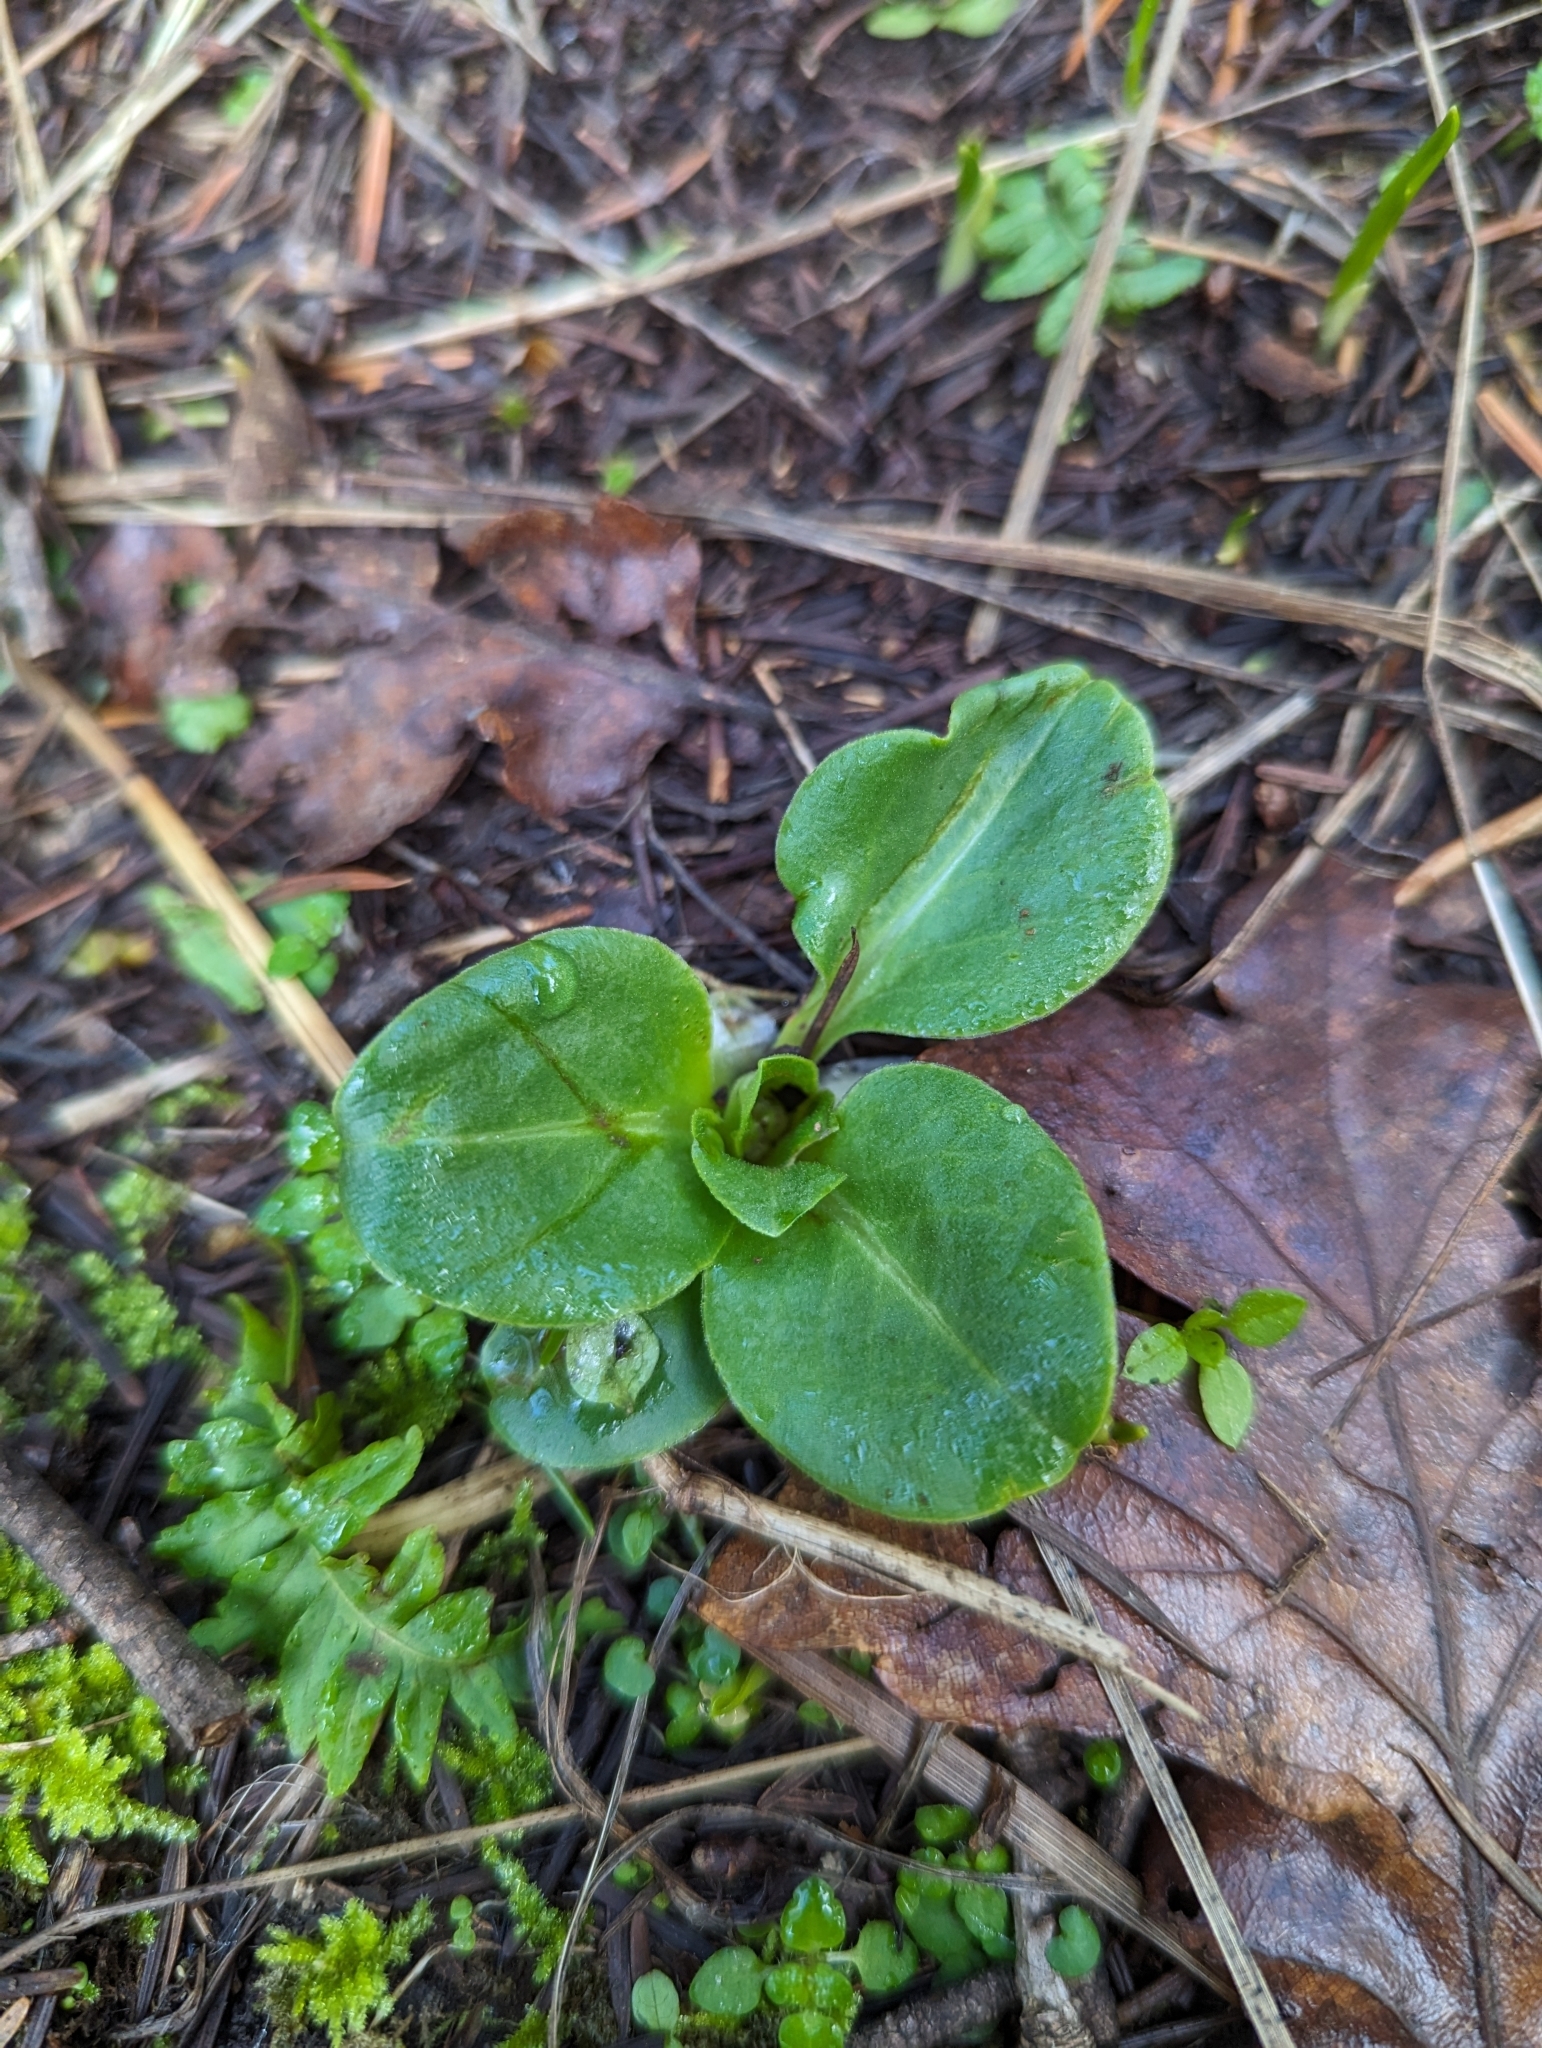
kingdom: Plantae
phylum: Tracheophyta
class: Magnoliopsida
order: Ericales
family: Primulaceae
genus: Dodecatheon
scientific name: Dodecatheon hendersonii
